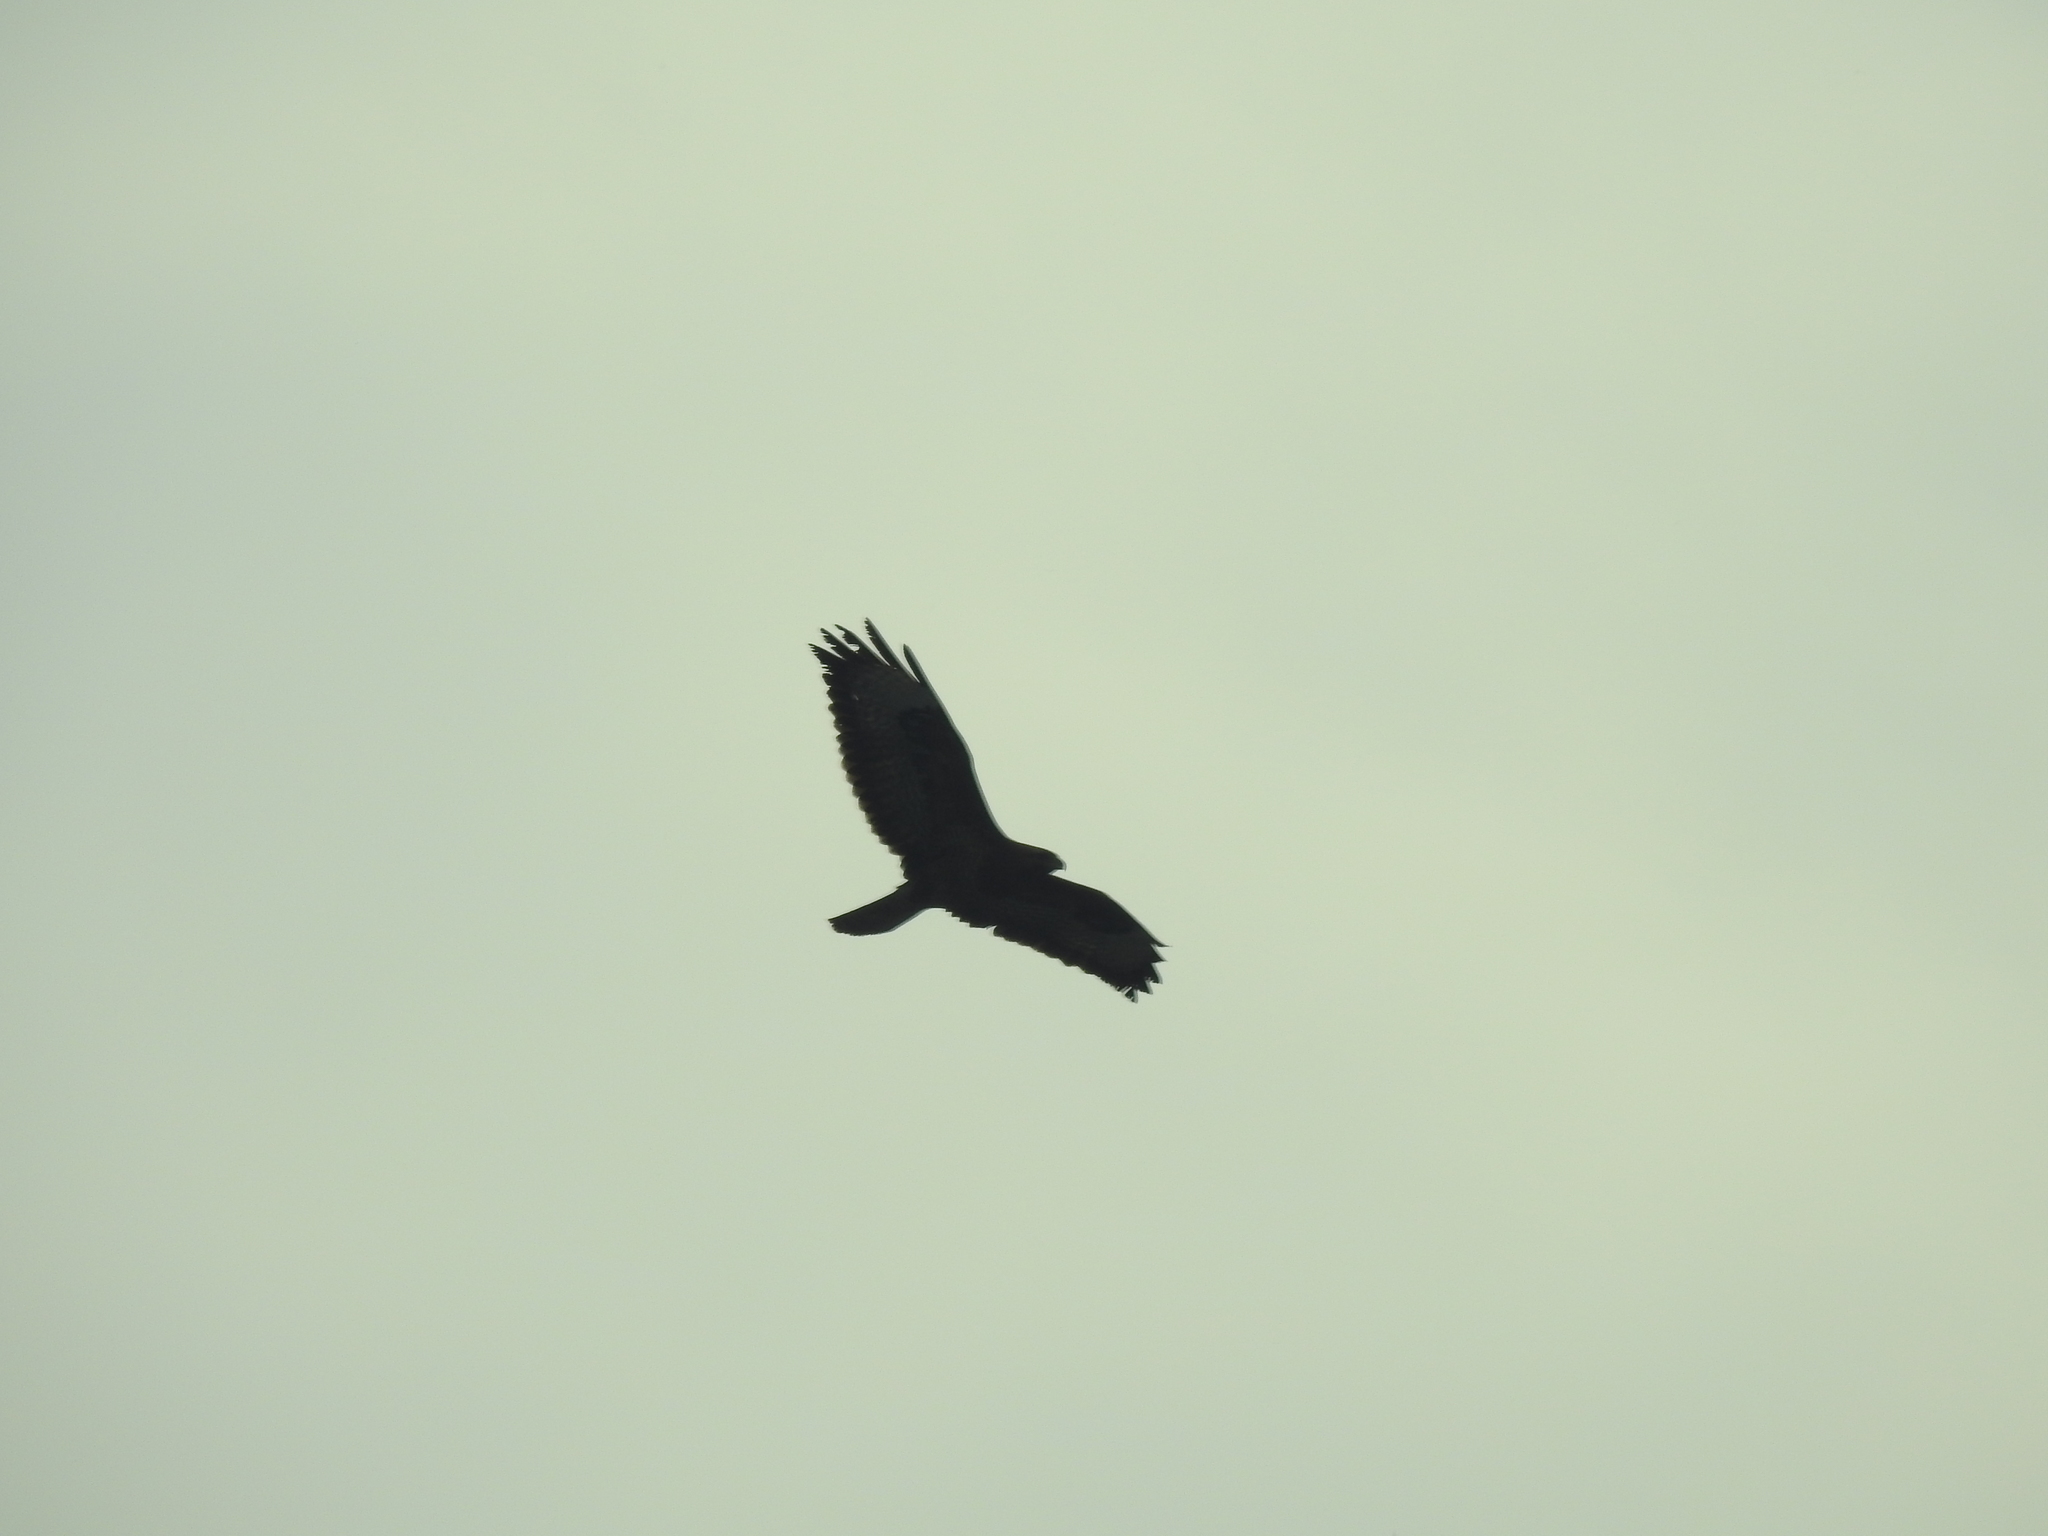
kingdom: Animalia
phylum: Chordata
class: Aves
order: Accipitriformes
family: Accipitridae
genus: Buteo
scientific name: Buteo buteo
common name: Common buzzard
